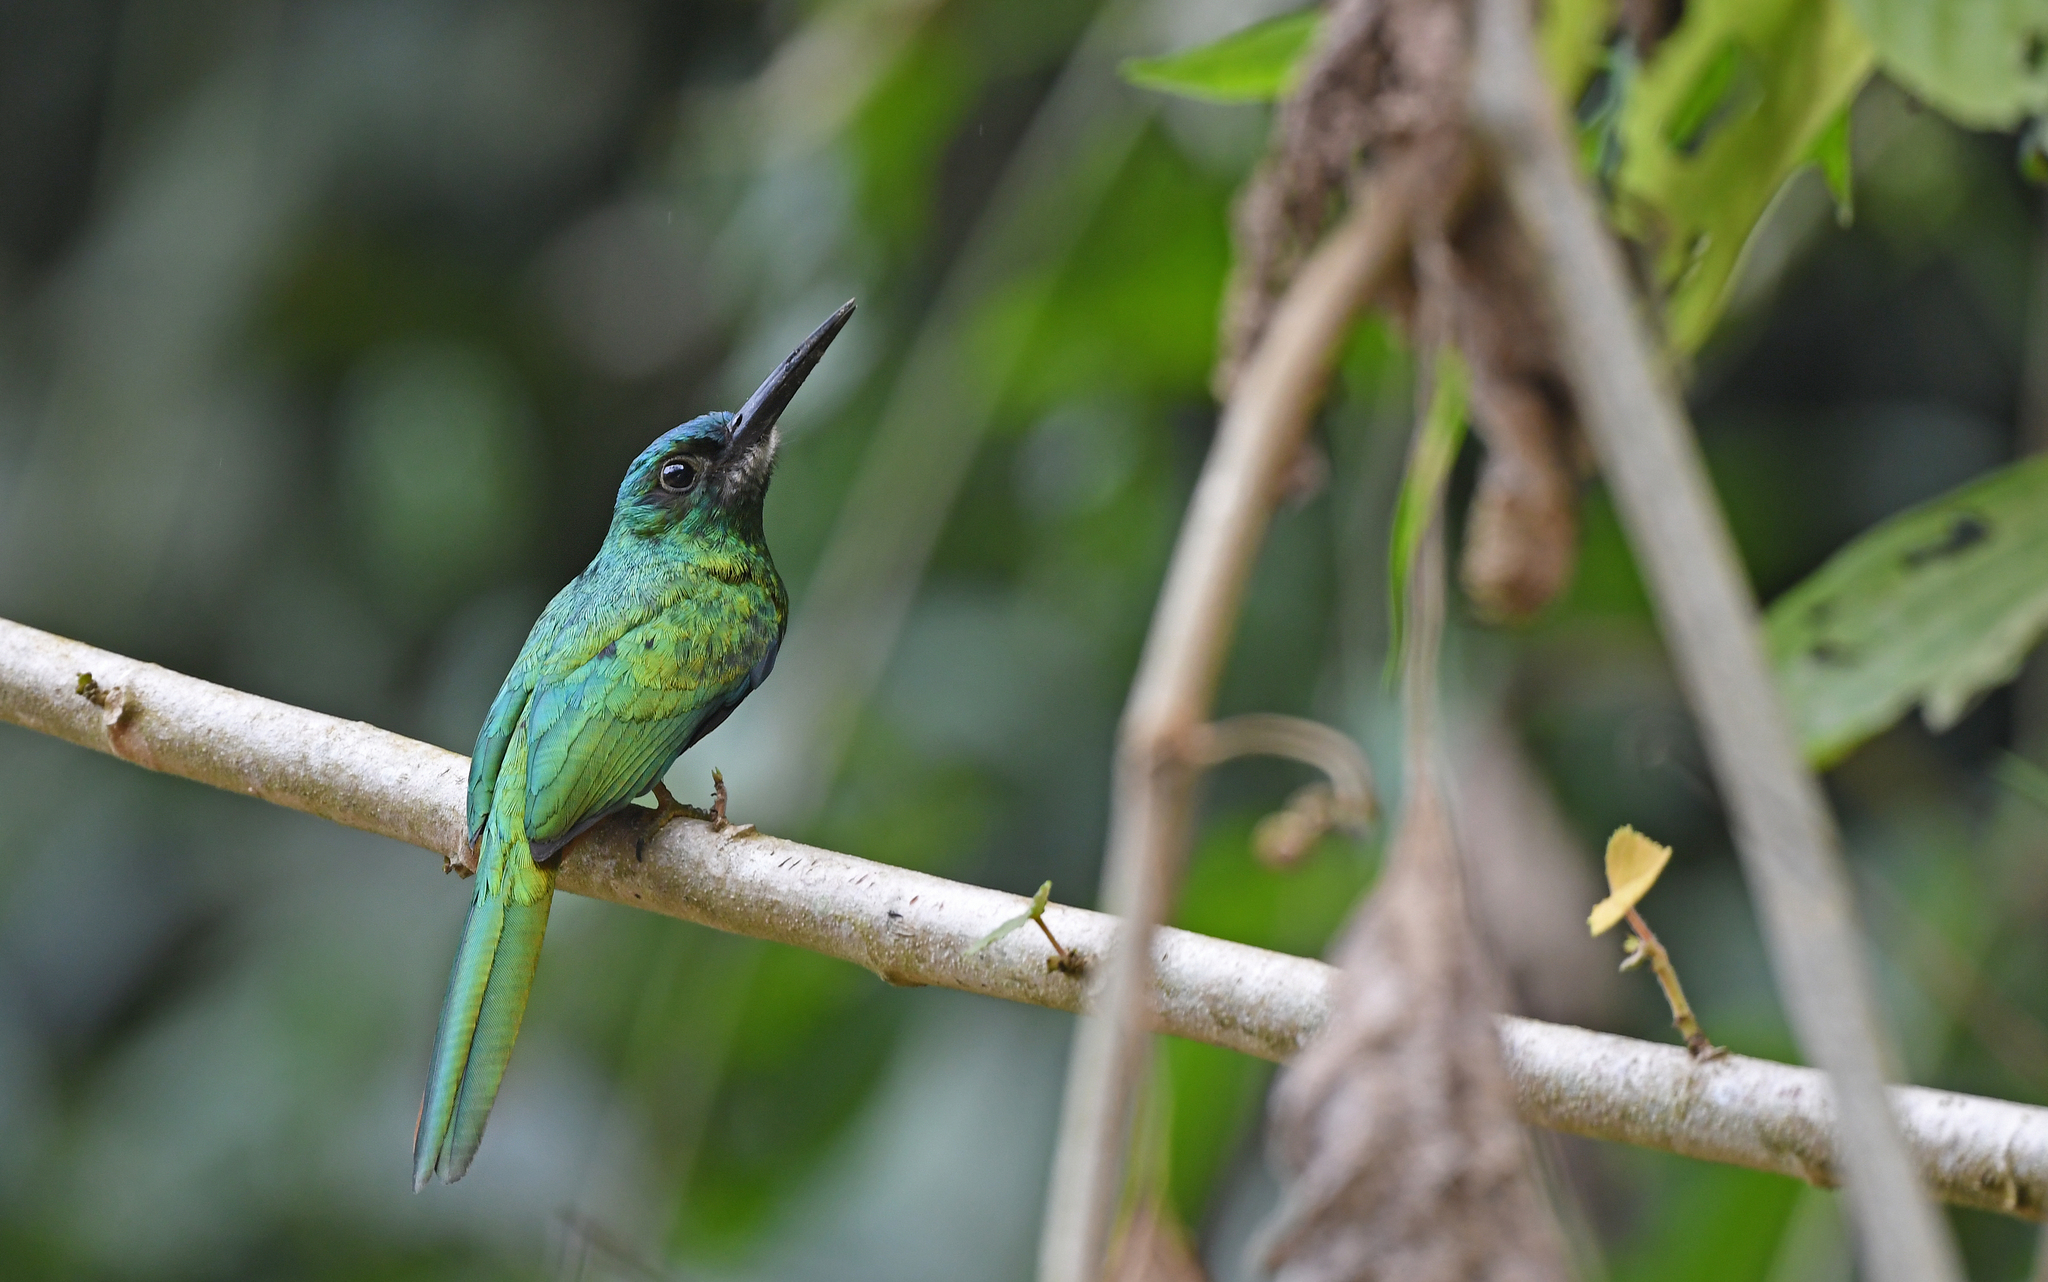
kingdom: Animalia
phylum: Chordata
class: Aves
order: Piciformes
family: Galbulidae
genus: Galbula
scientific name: Galbula cyanescens
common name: Bluish-fronted jacamar
